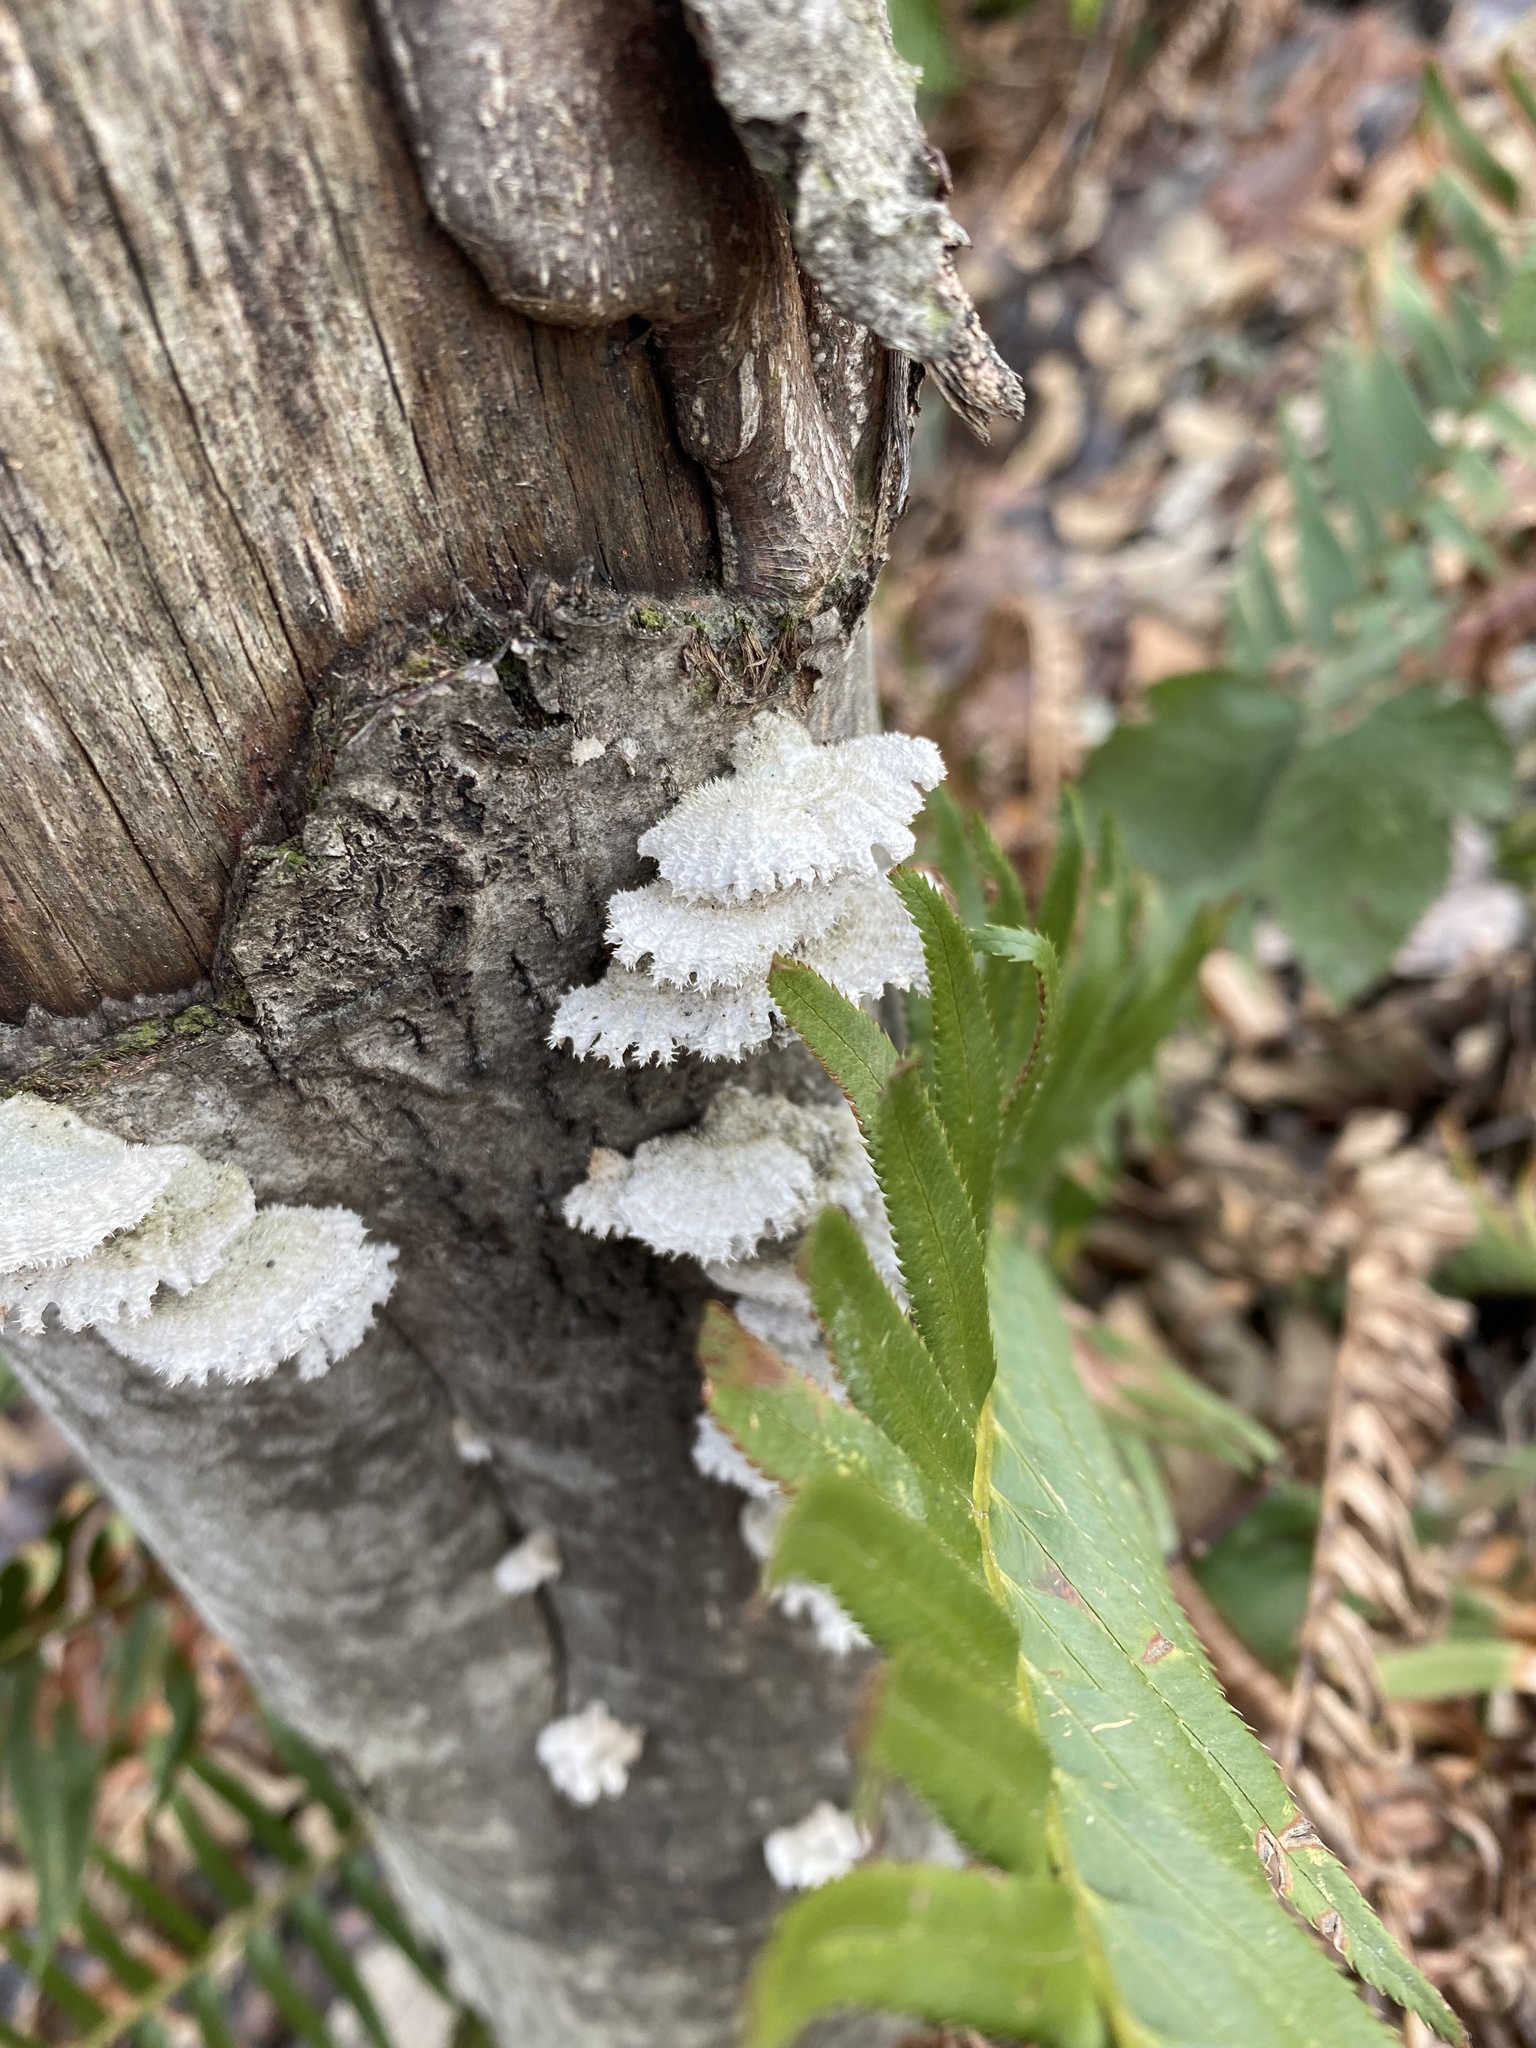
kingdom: Fungi
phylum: Basidiomycota
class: Agaricomycetes
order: Agaricales
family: Schizophyllaceae
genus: Schizophyllum
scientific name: Schizophyllum commune
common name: Common porecrust
